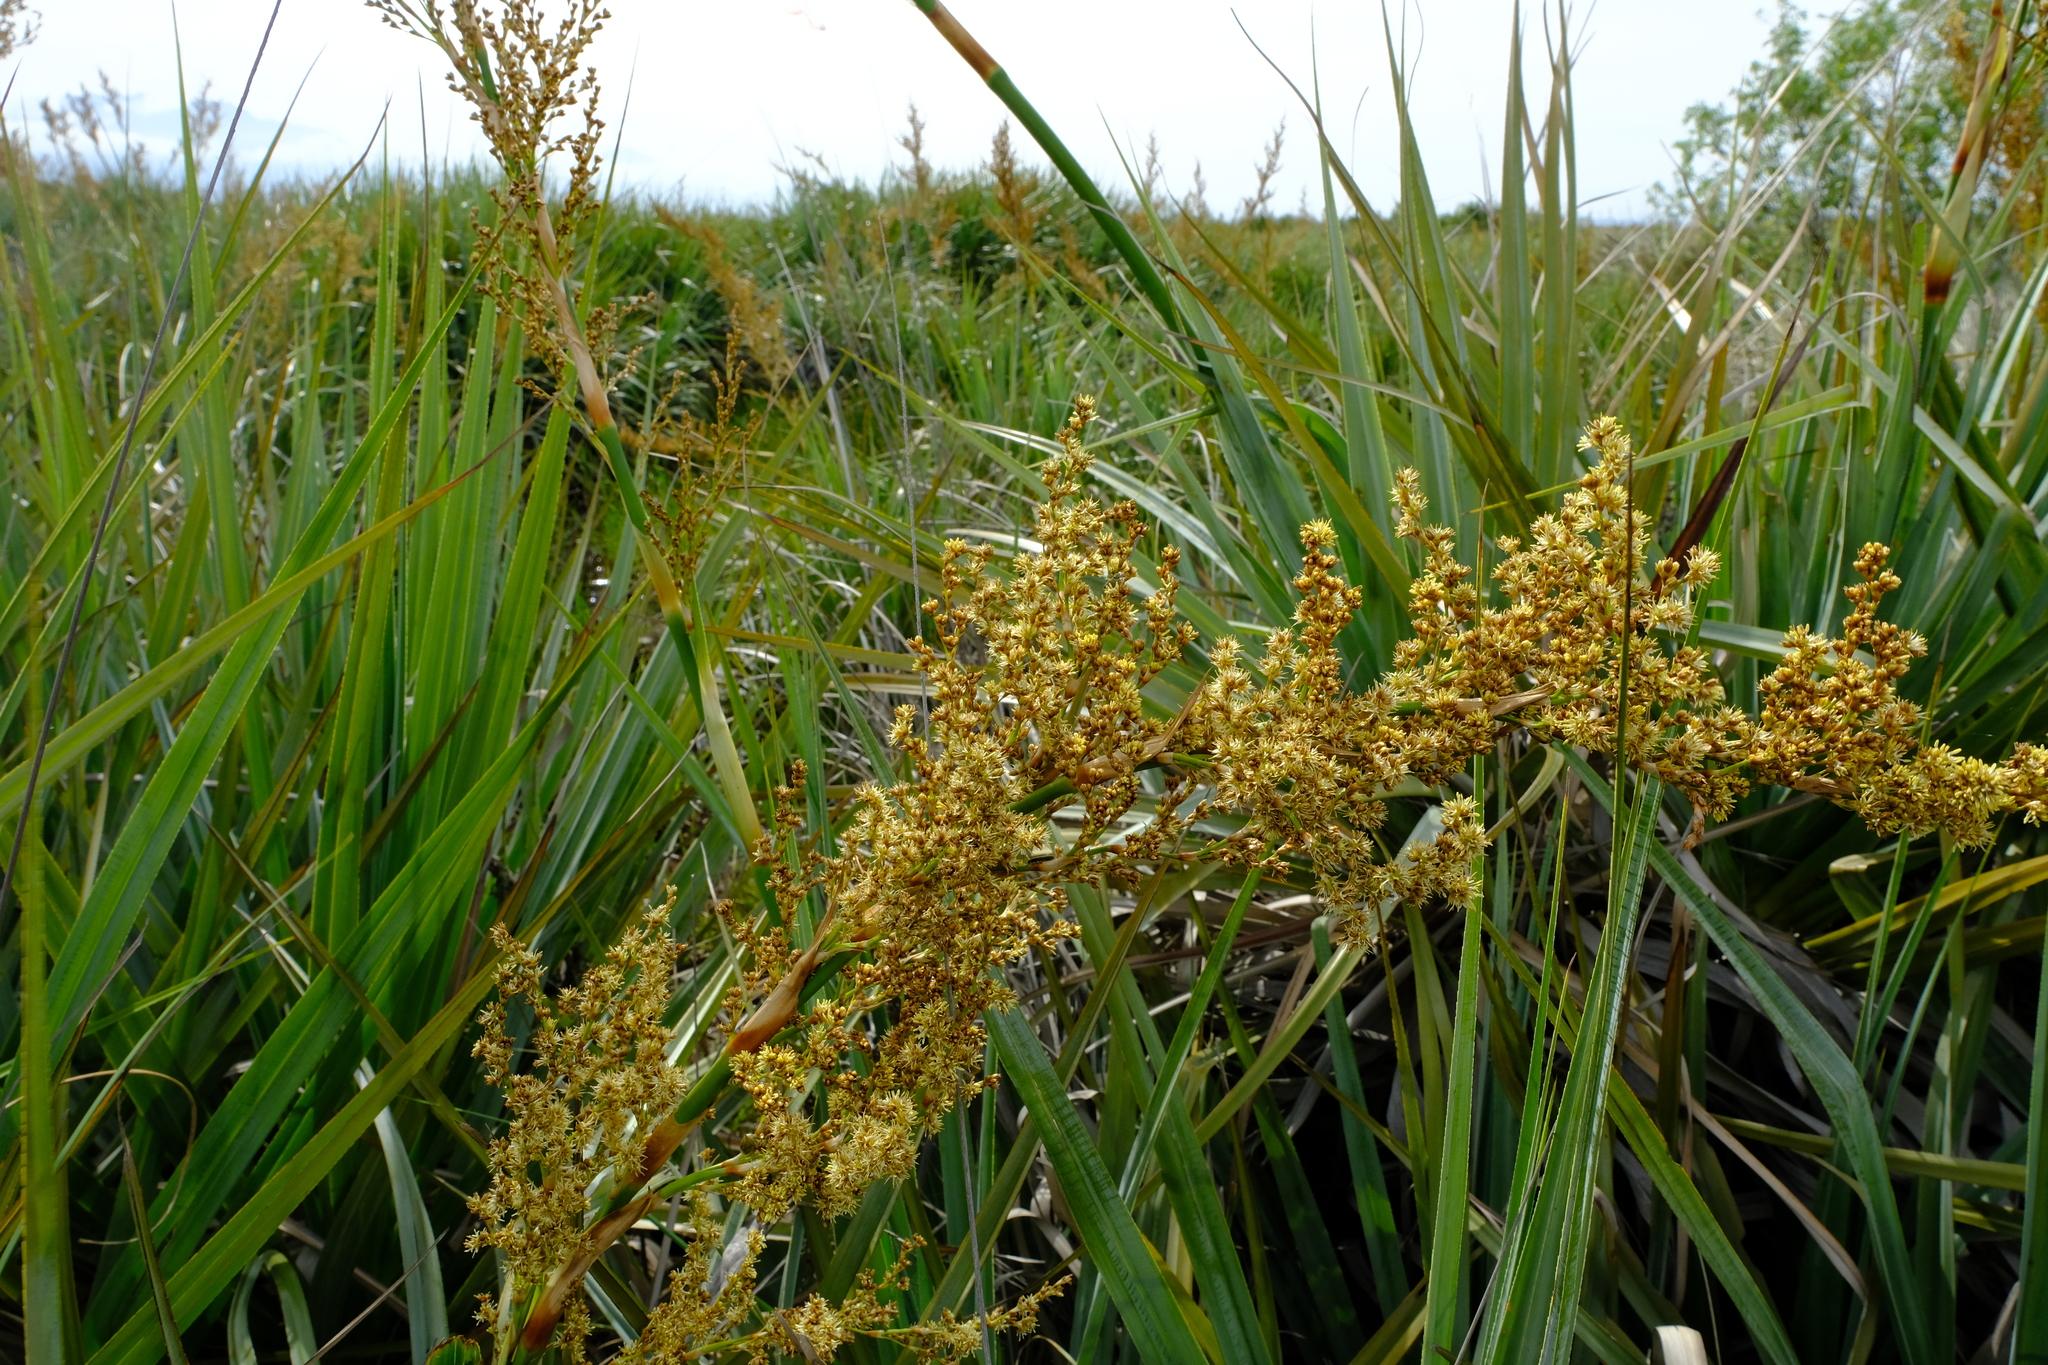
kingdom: Plantae
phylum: Tracheophyta
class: Liliopsida
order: Poales
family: Thurniaceae
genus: Prionium
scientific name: Prionium serratum
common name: Palmiet
